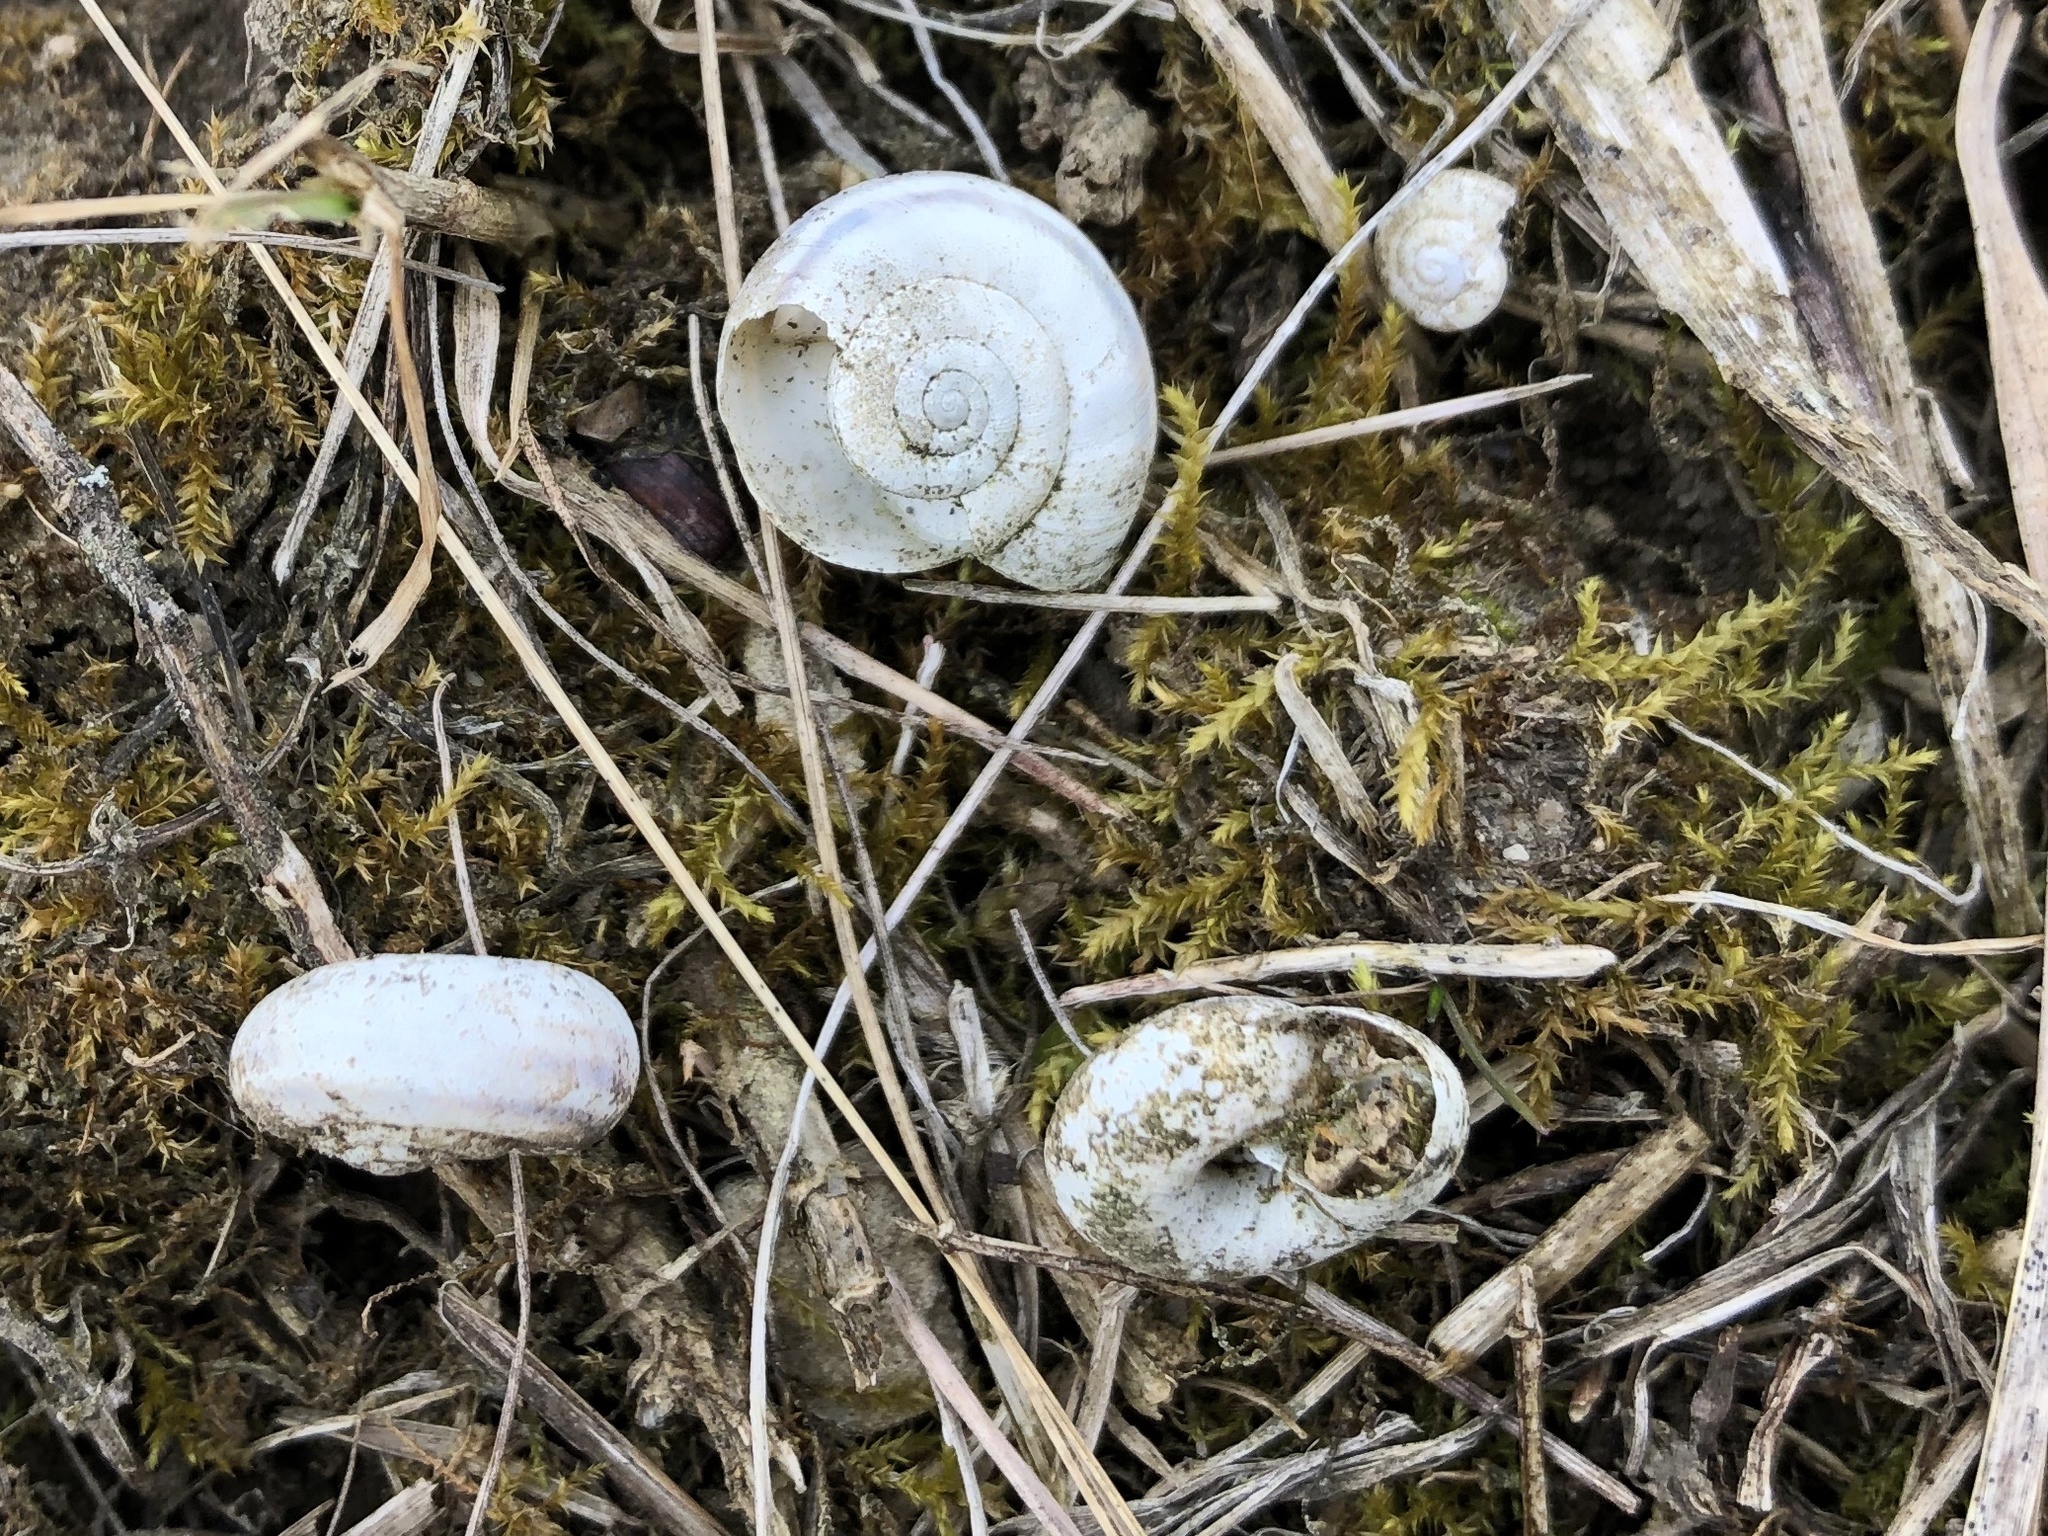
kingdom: Animalia
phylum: Mollusca
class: Gastropoda
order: Stylommatophora
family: Geomitridae
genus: Xerolenta
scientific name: Xerolenta obvia
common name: White heath snail
